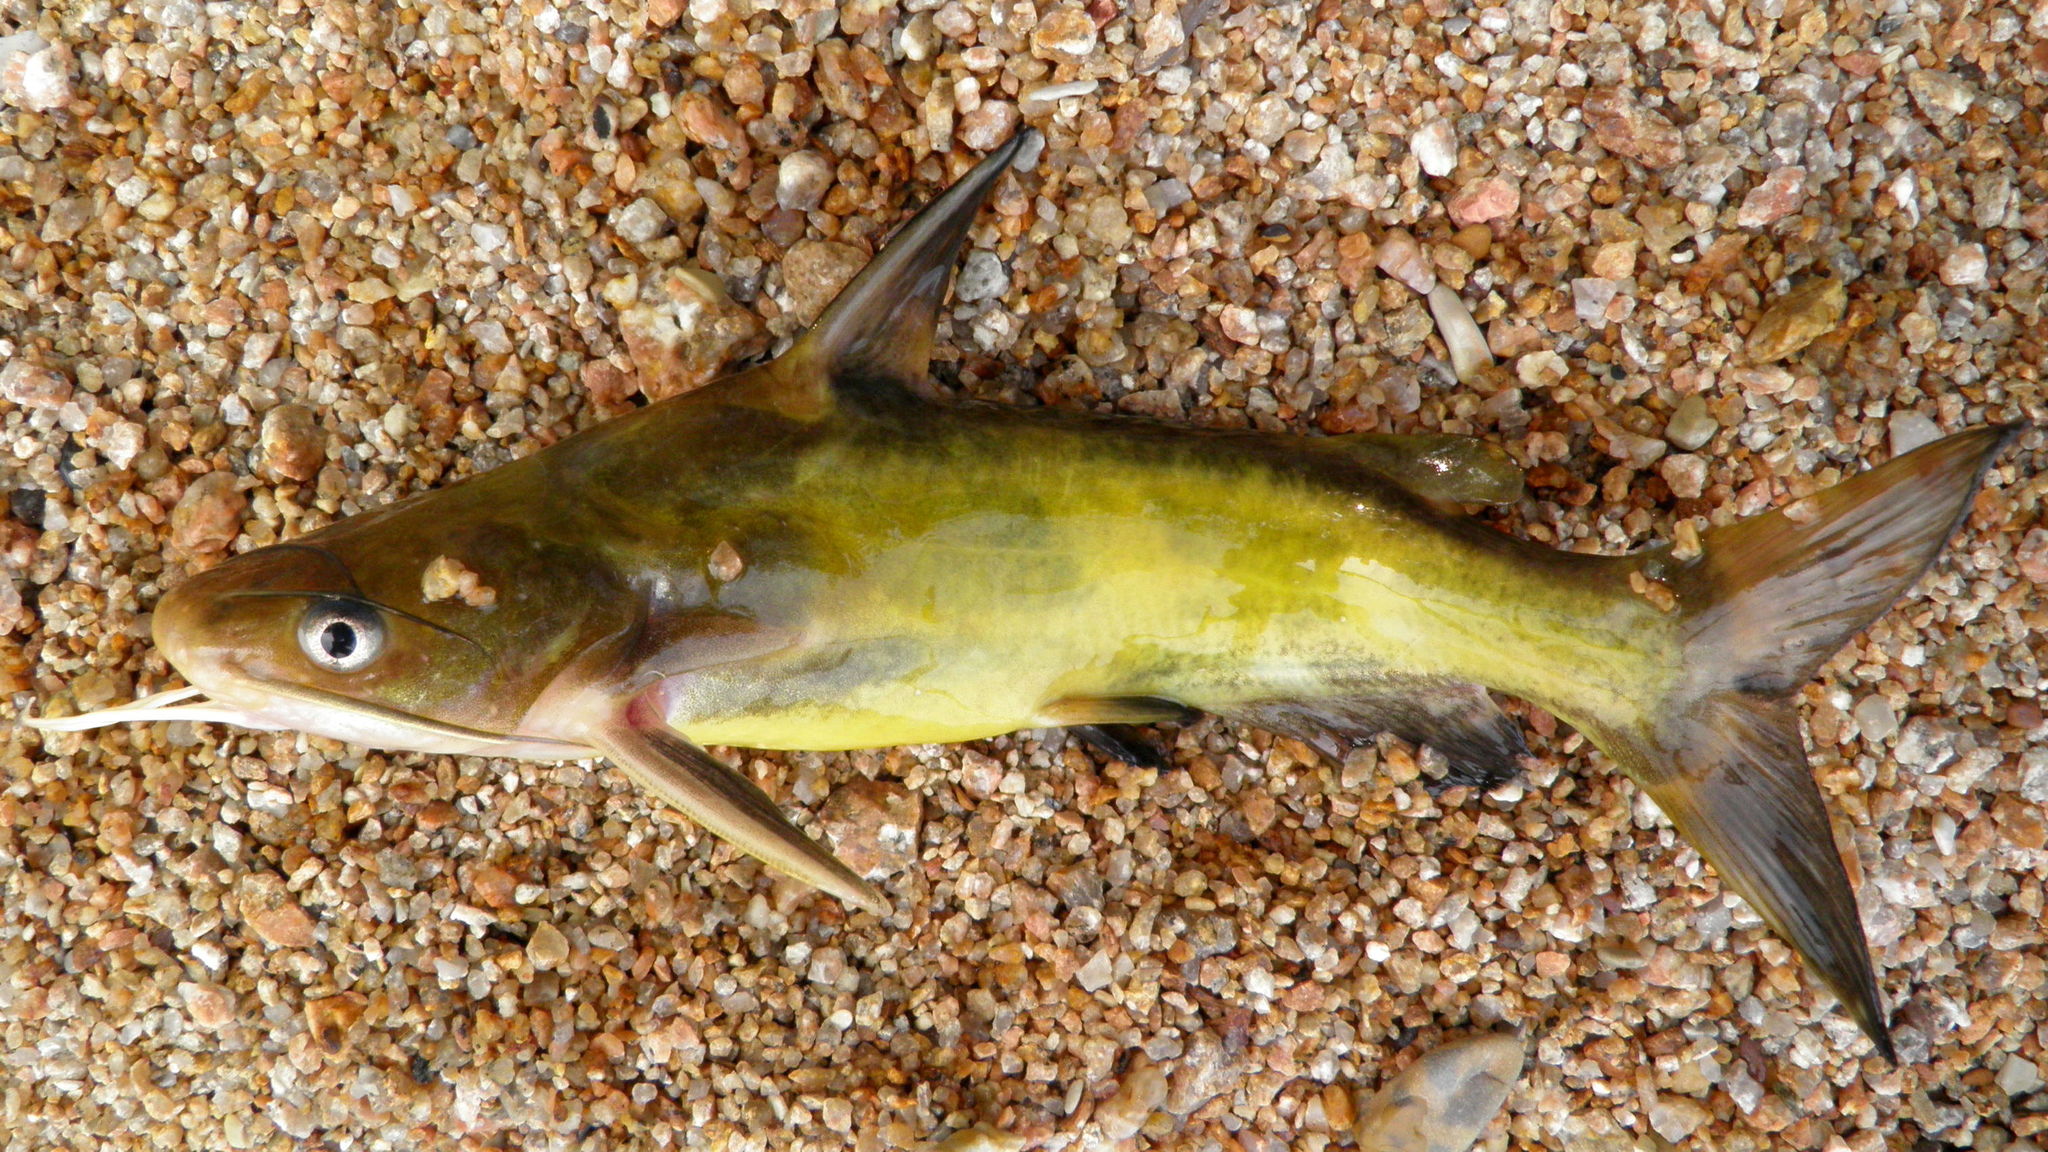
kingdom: Animalia
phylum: Chordata
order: Siluriformes
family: Bagridae
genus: Tachysurus
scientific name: Tachysurus sinensis
